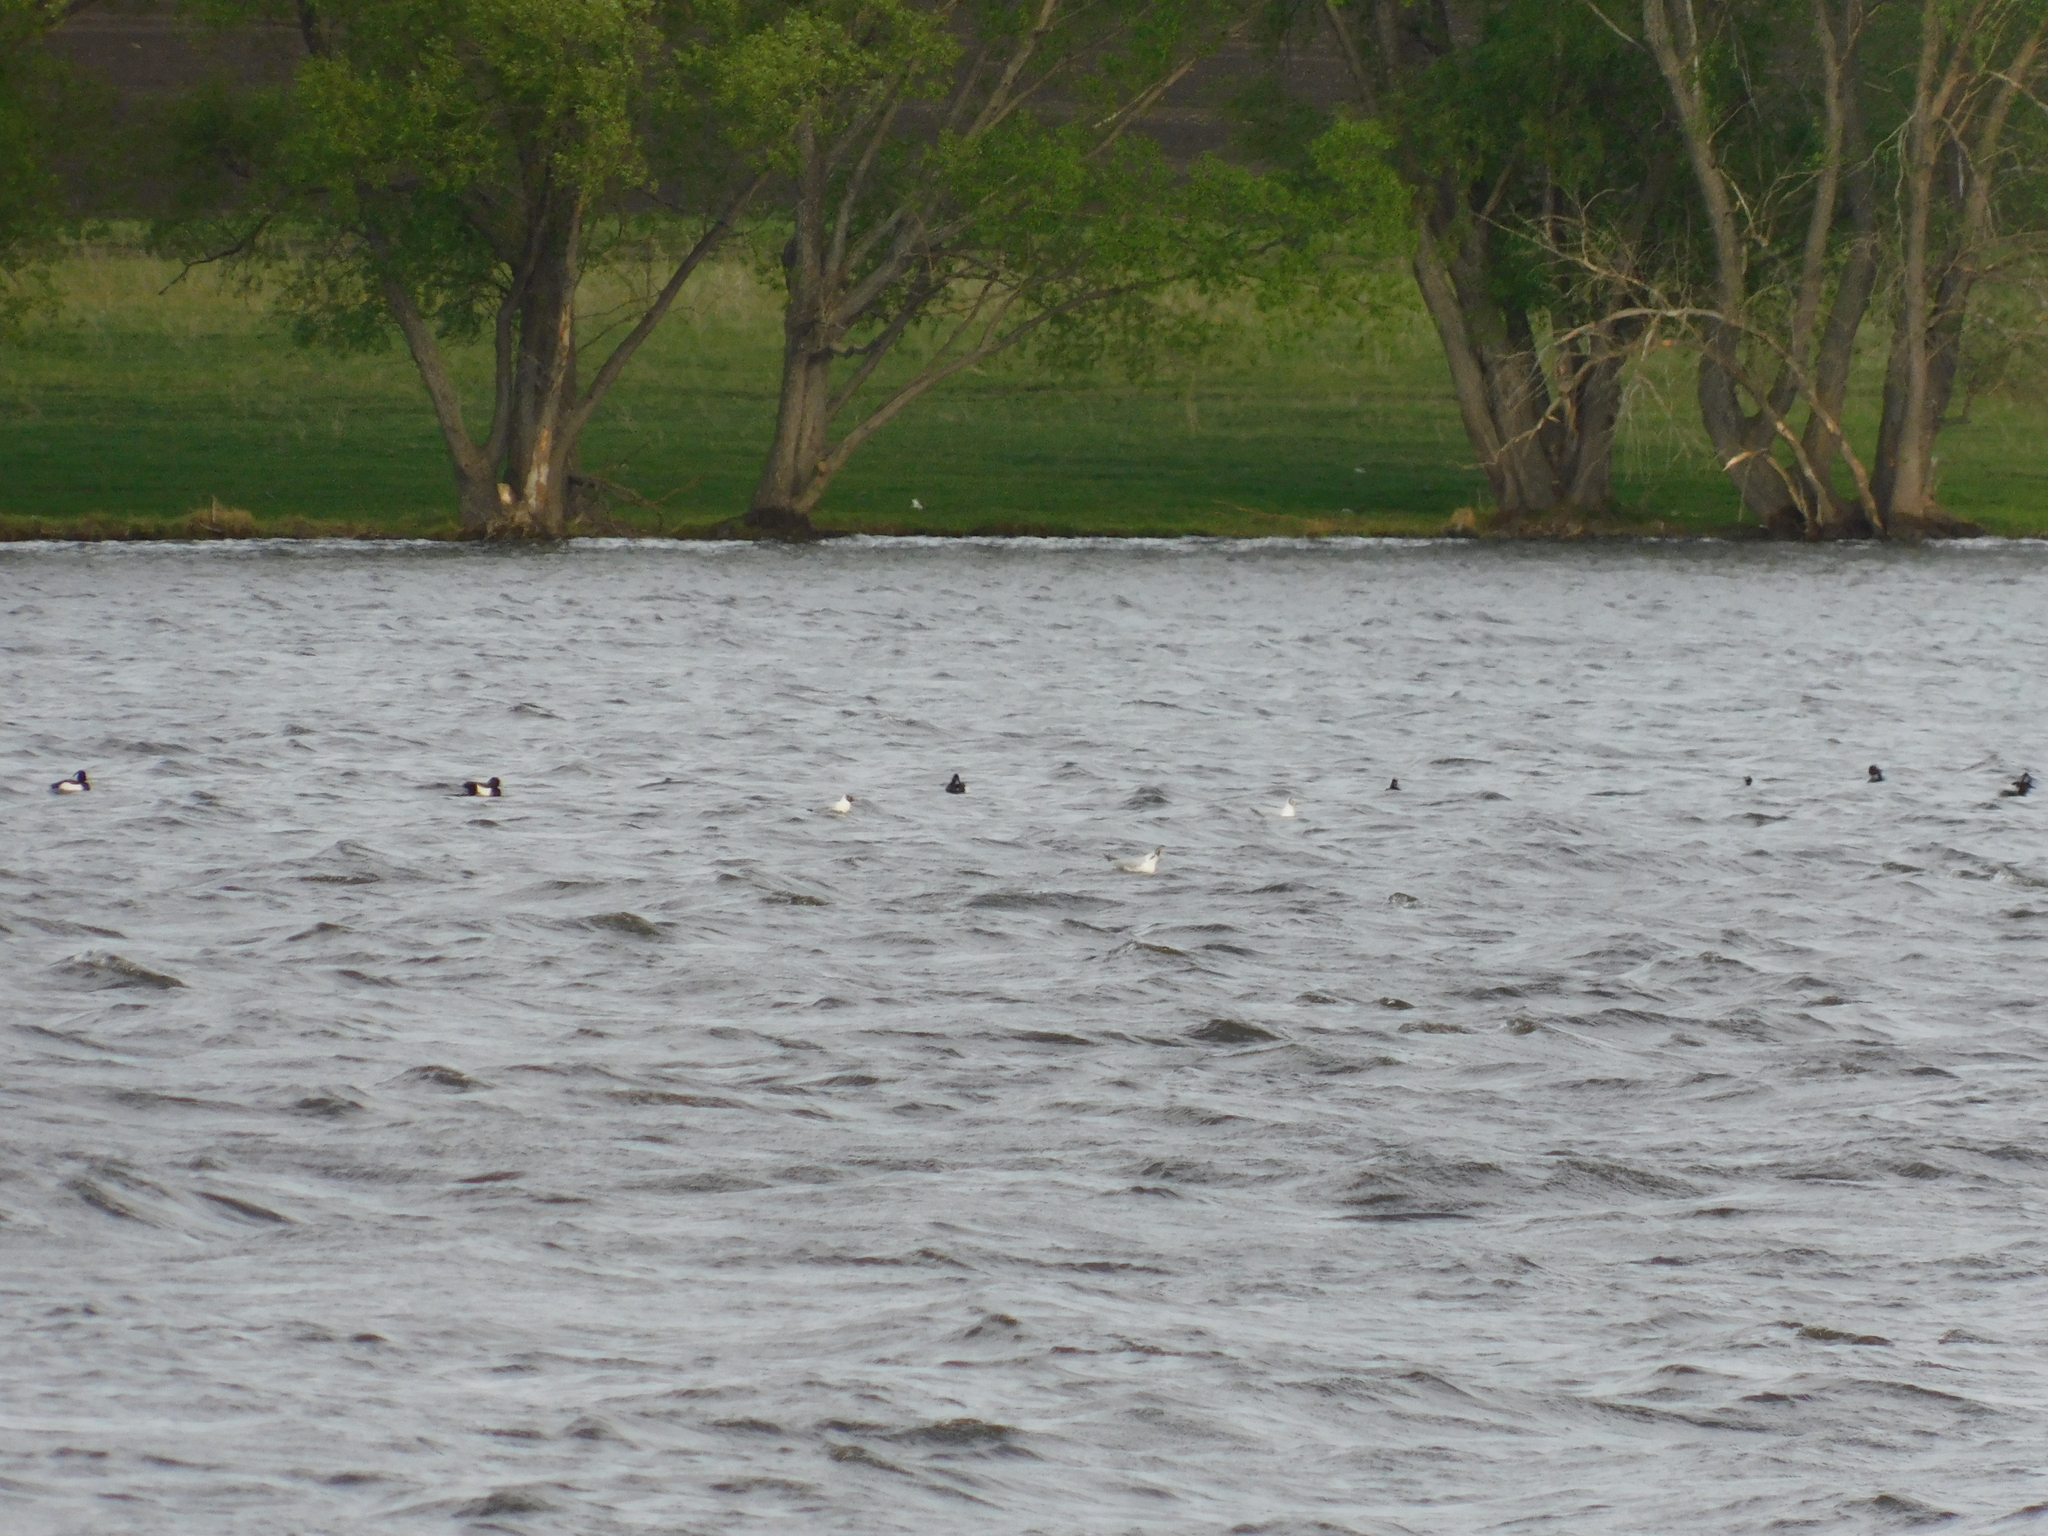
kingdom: Animalia
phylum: Chordata
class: Aves
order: Anseriformes
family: Anatidae
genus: Aythya
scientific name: Aythya fuligula
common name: Tufted duck
